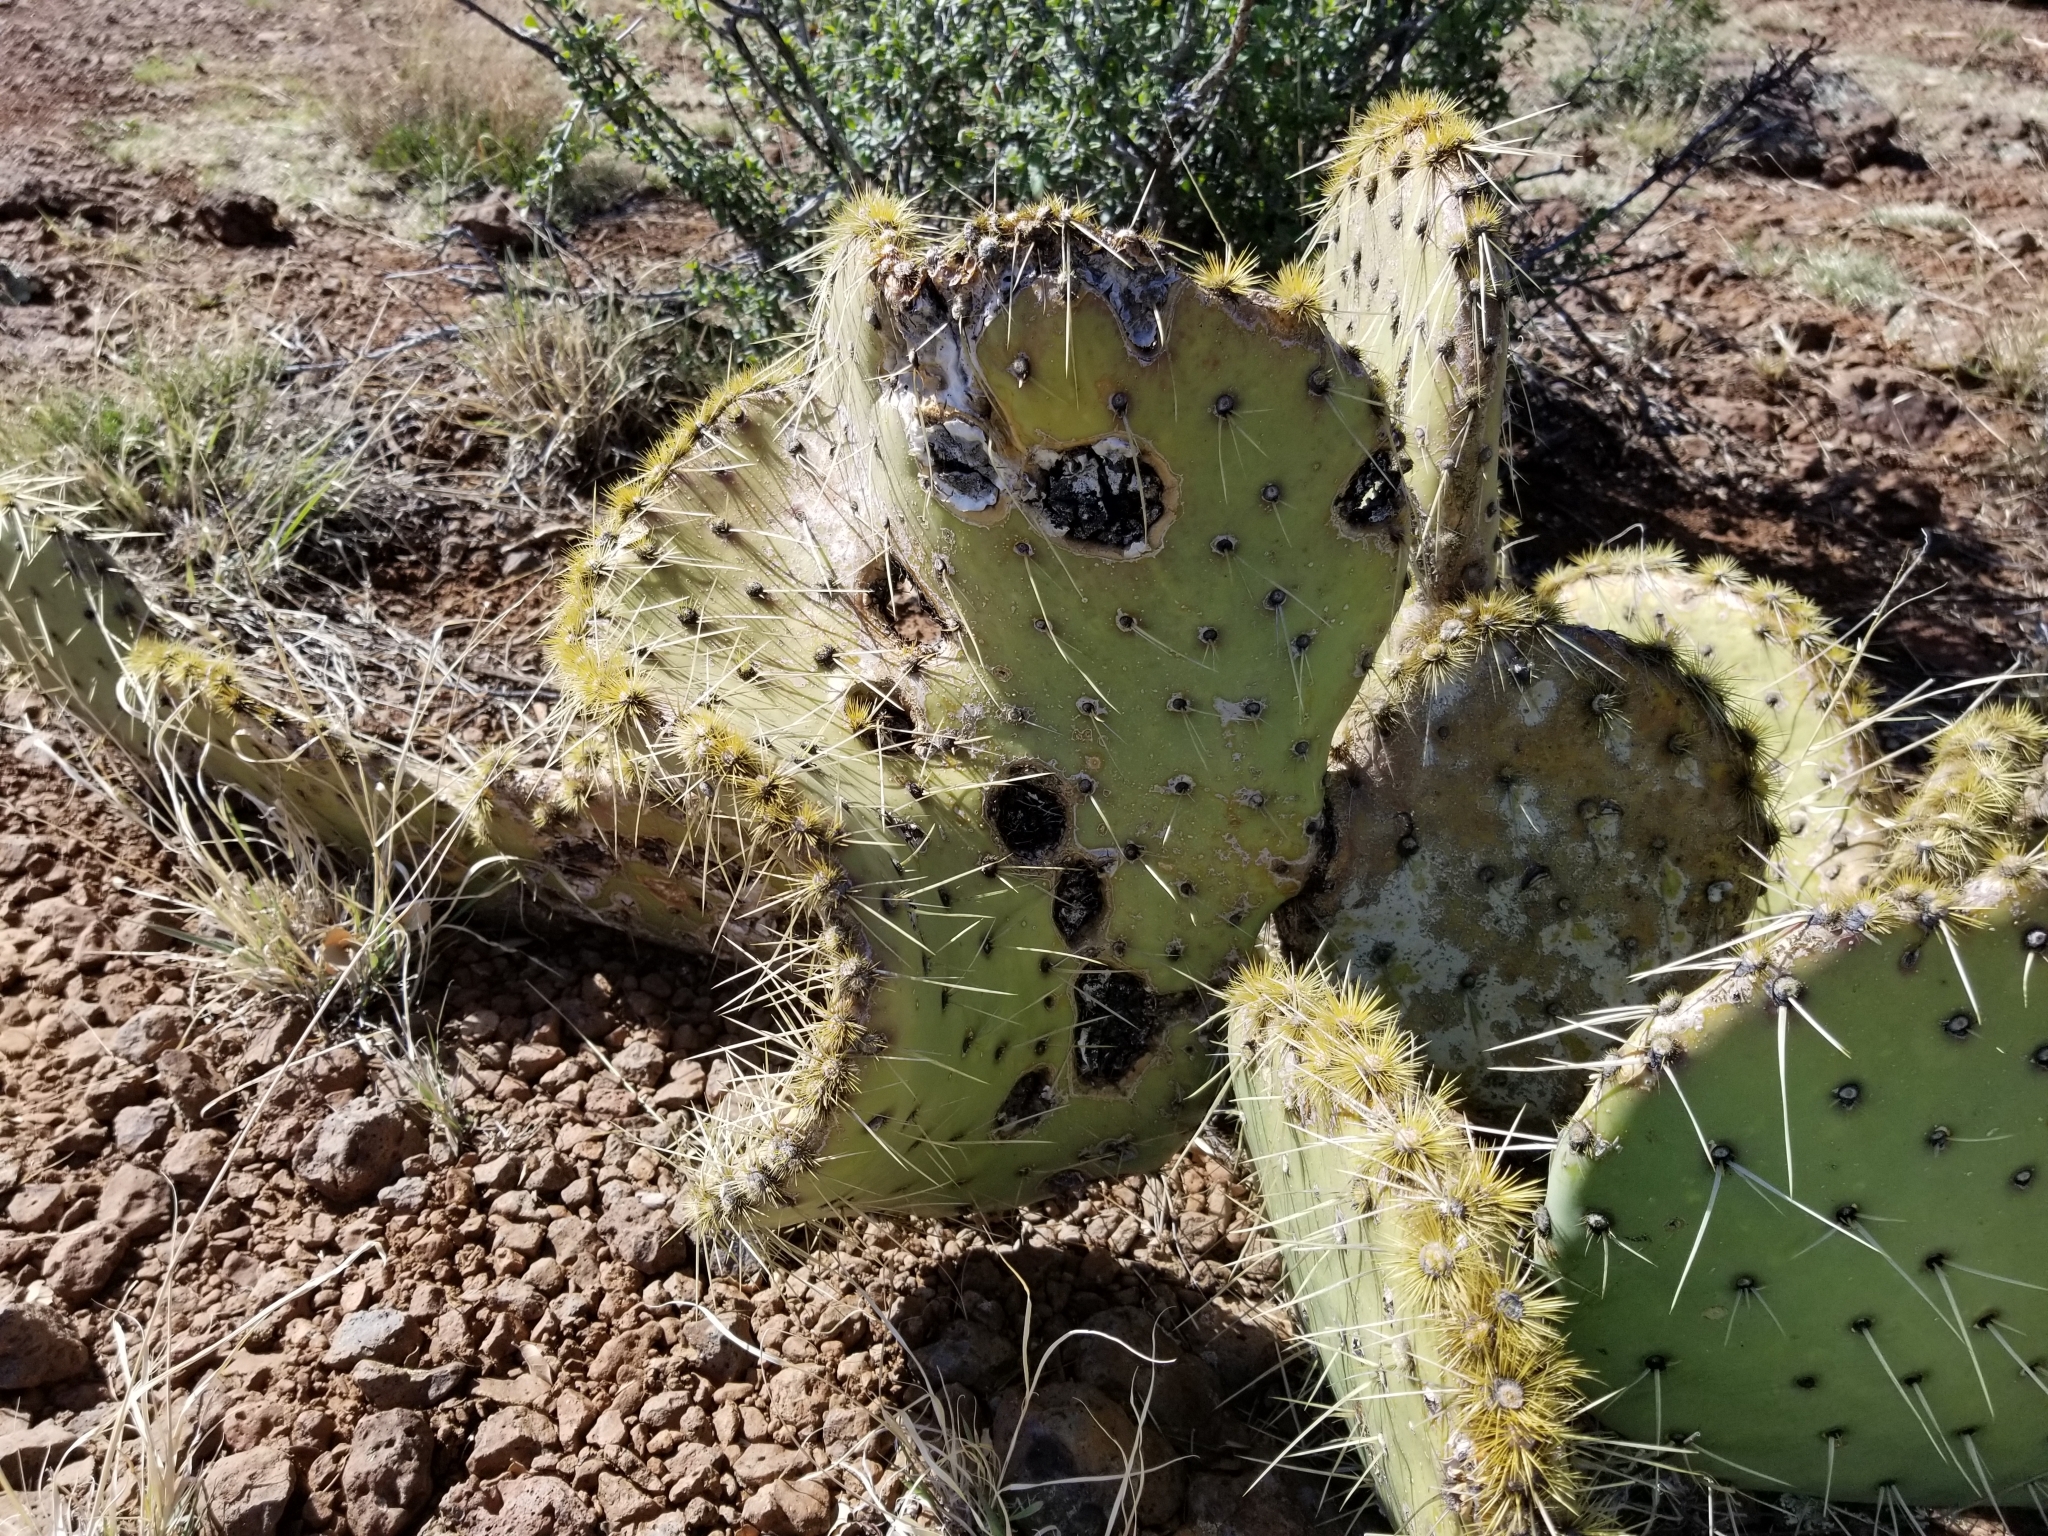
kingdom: Plantae
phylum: Tracheophyta
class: Magnoliopsida
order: Caryophyllales
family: Cactaceae
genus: Opuntia
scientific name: Opuntia phaeacantha
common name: New mexico prickly-pear
